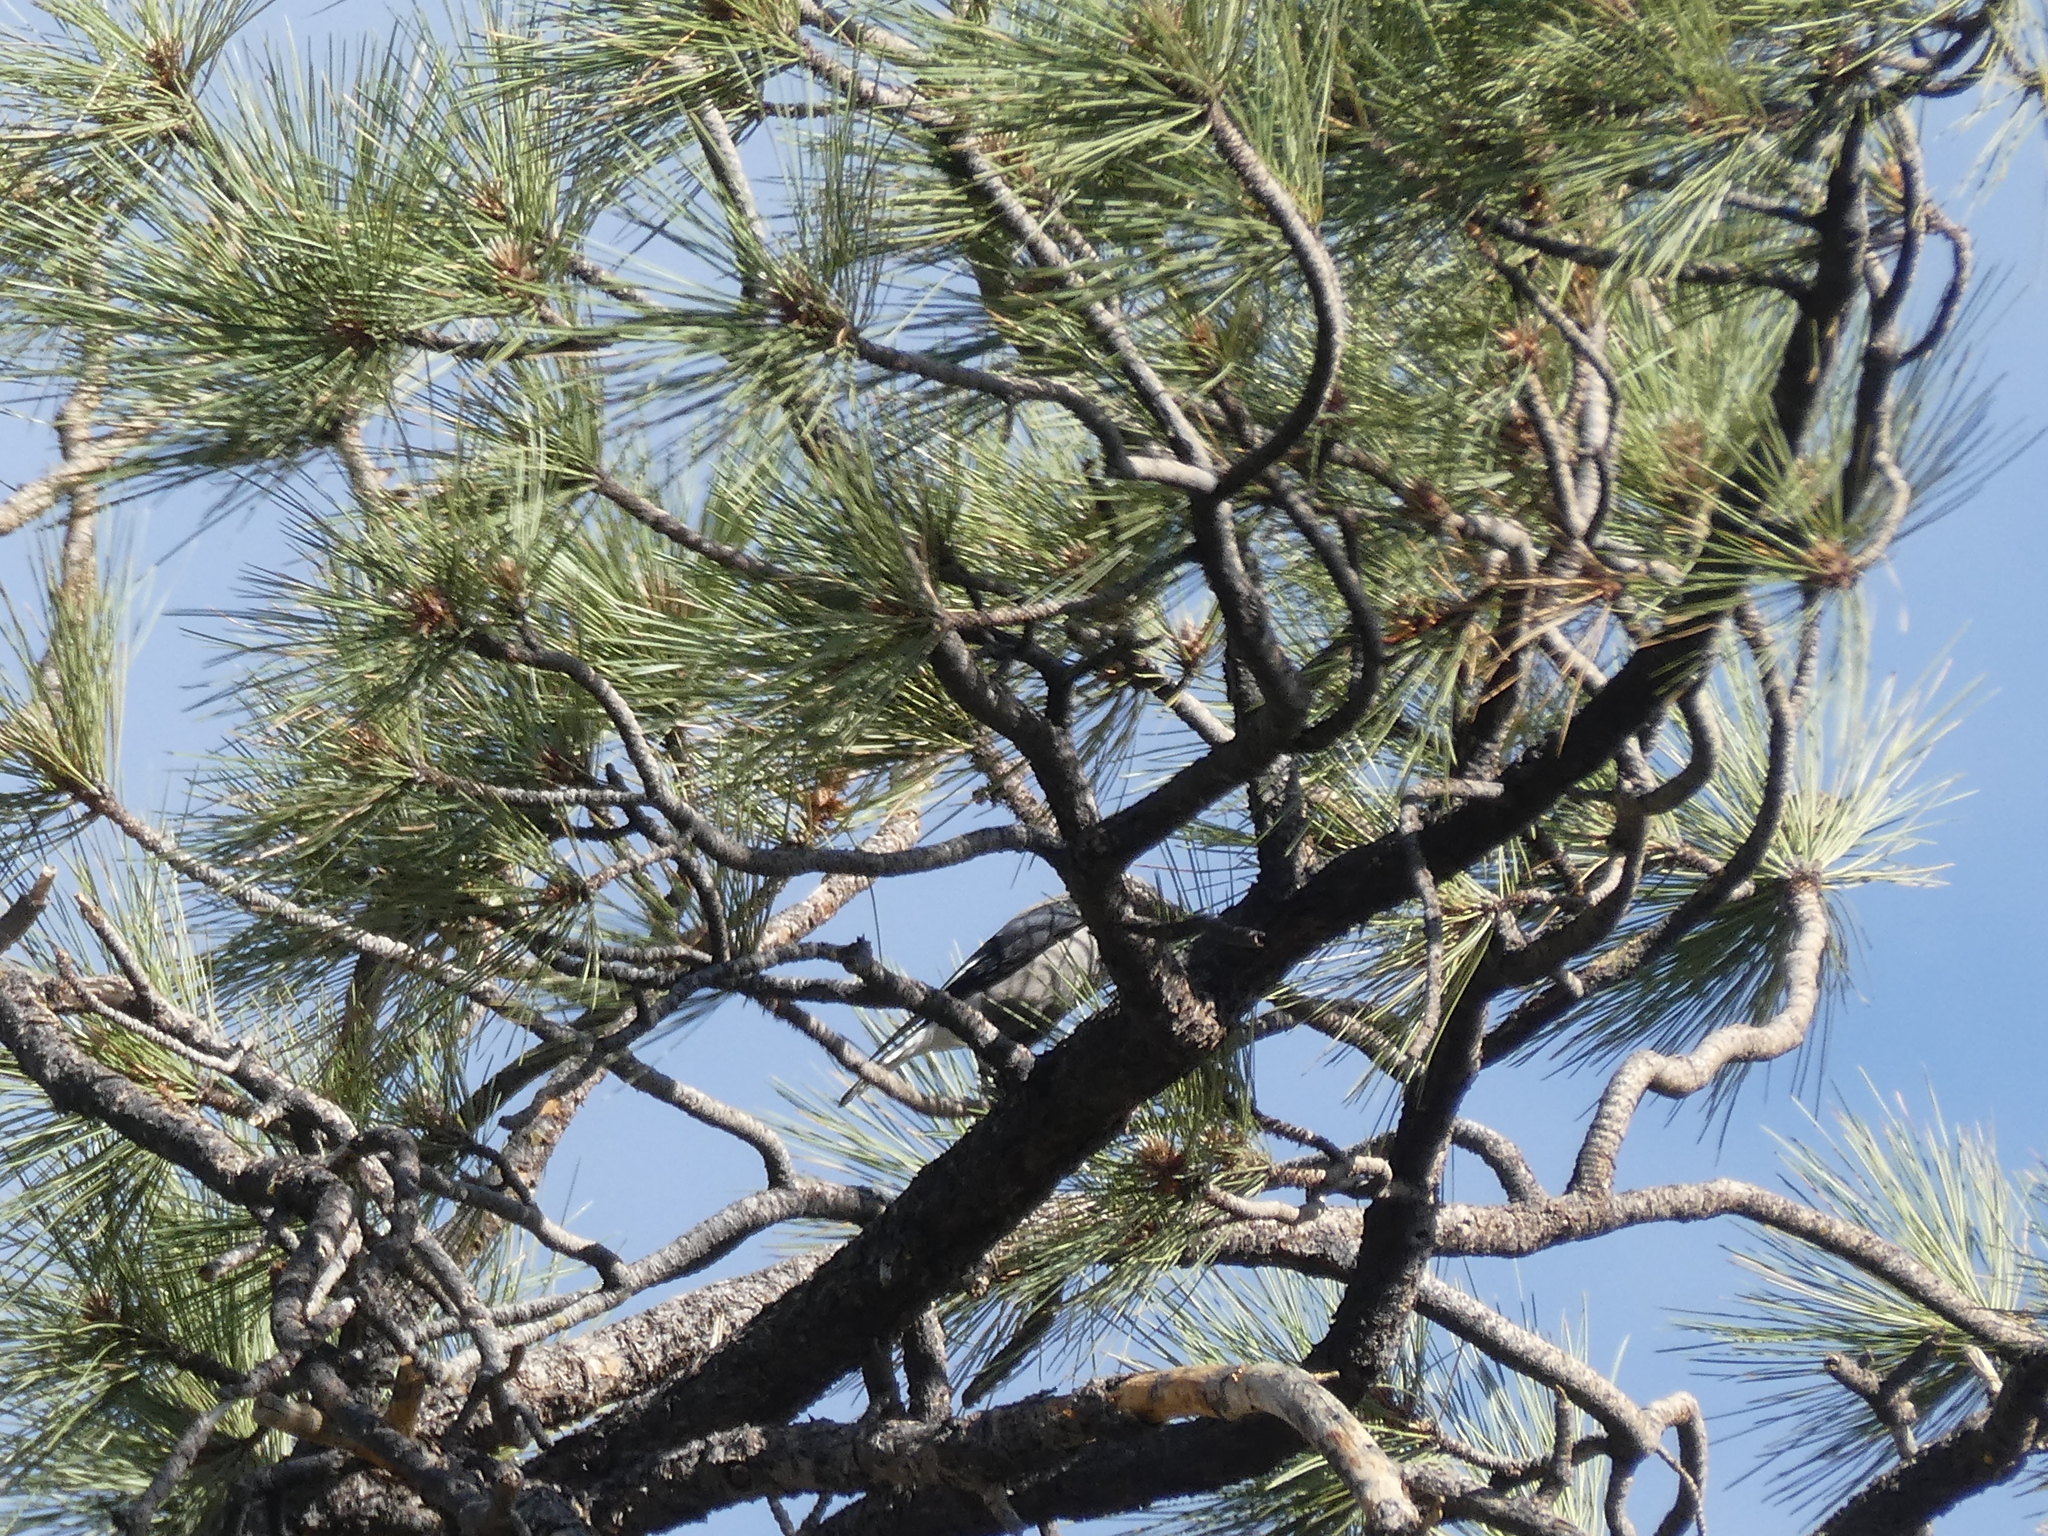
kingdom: Animalia
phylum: Chordata
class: Aves
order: Passeriformes
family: Corvidae
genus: Nucifraga
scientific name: Nucifraga columbiana
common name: Clark's nutcracker
